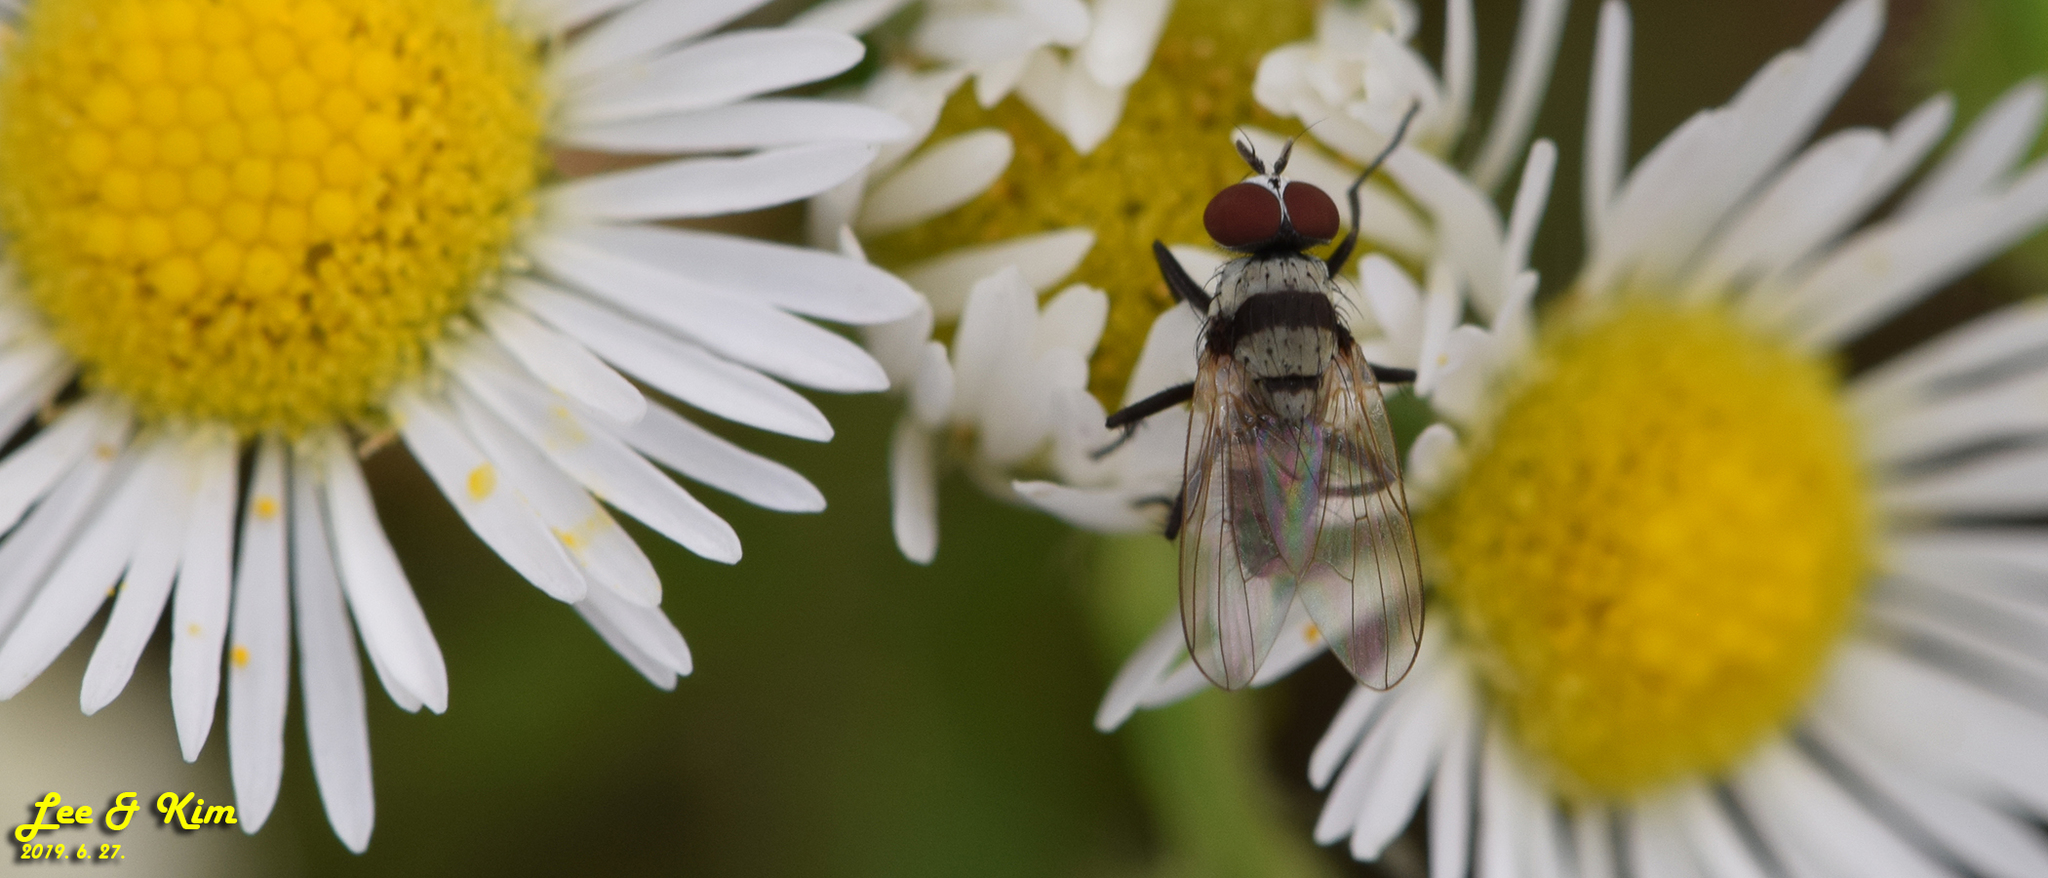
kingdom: Animalia
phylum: Arthropoda
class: Insecta
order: Diptera
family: Anthomyiidae
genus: Anthomyia
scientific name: Anthomyia illocata
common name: Fly
